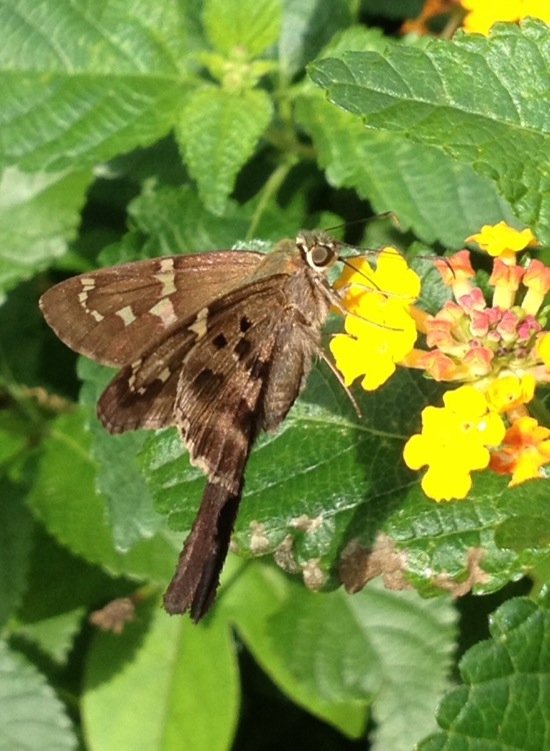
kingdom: Animalia
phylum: Arthropoda
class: Insecta
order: Lepidoptera
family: Hesperiidae
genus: Urbanus
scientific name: Urbanus proteus
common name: Long-tailed skipper
